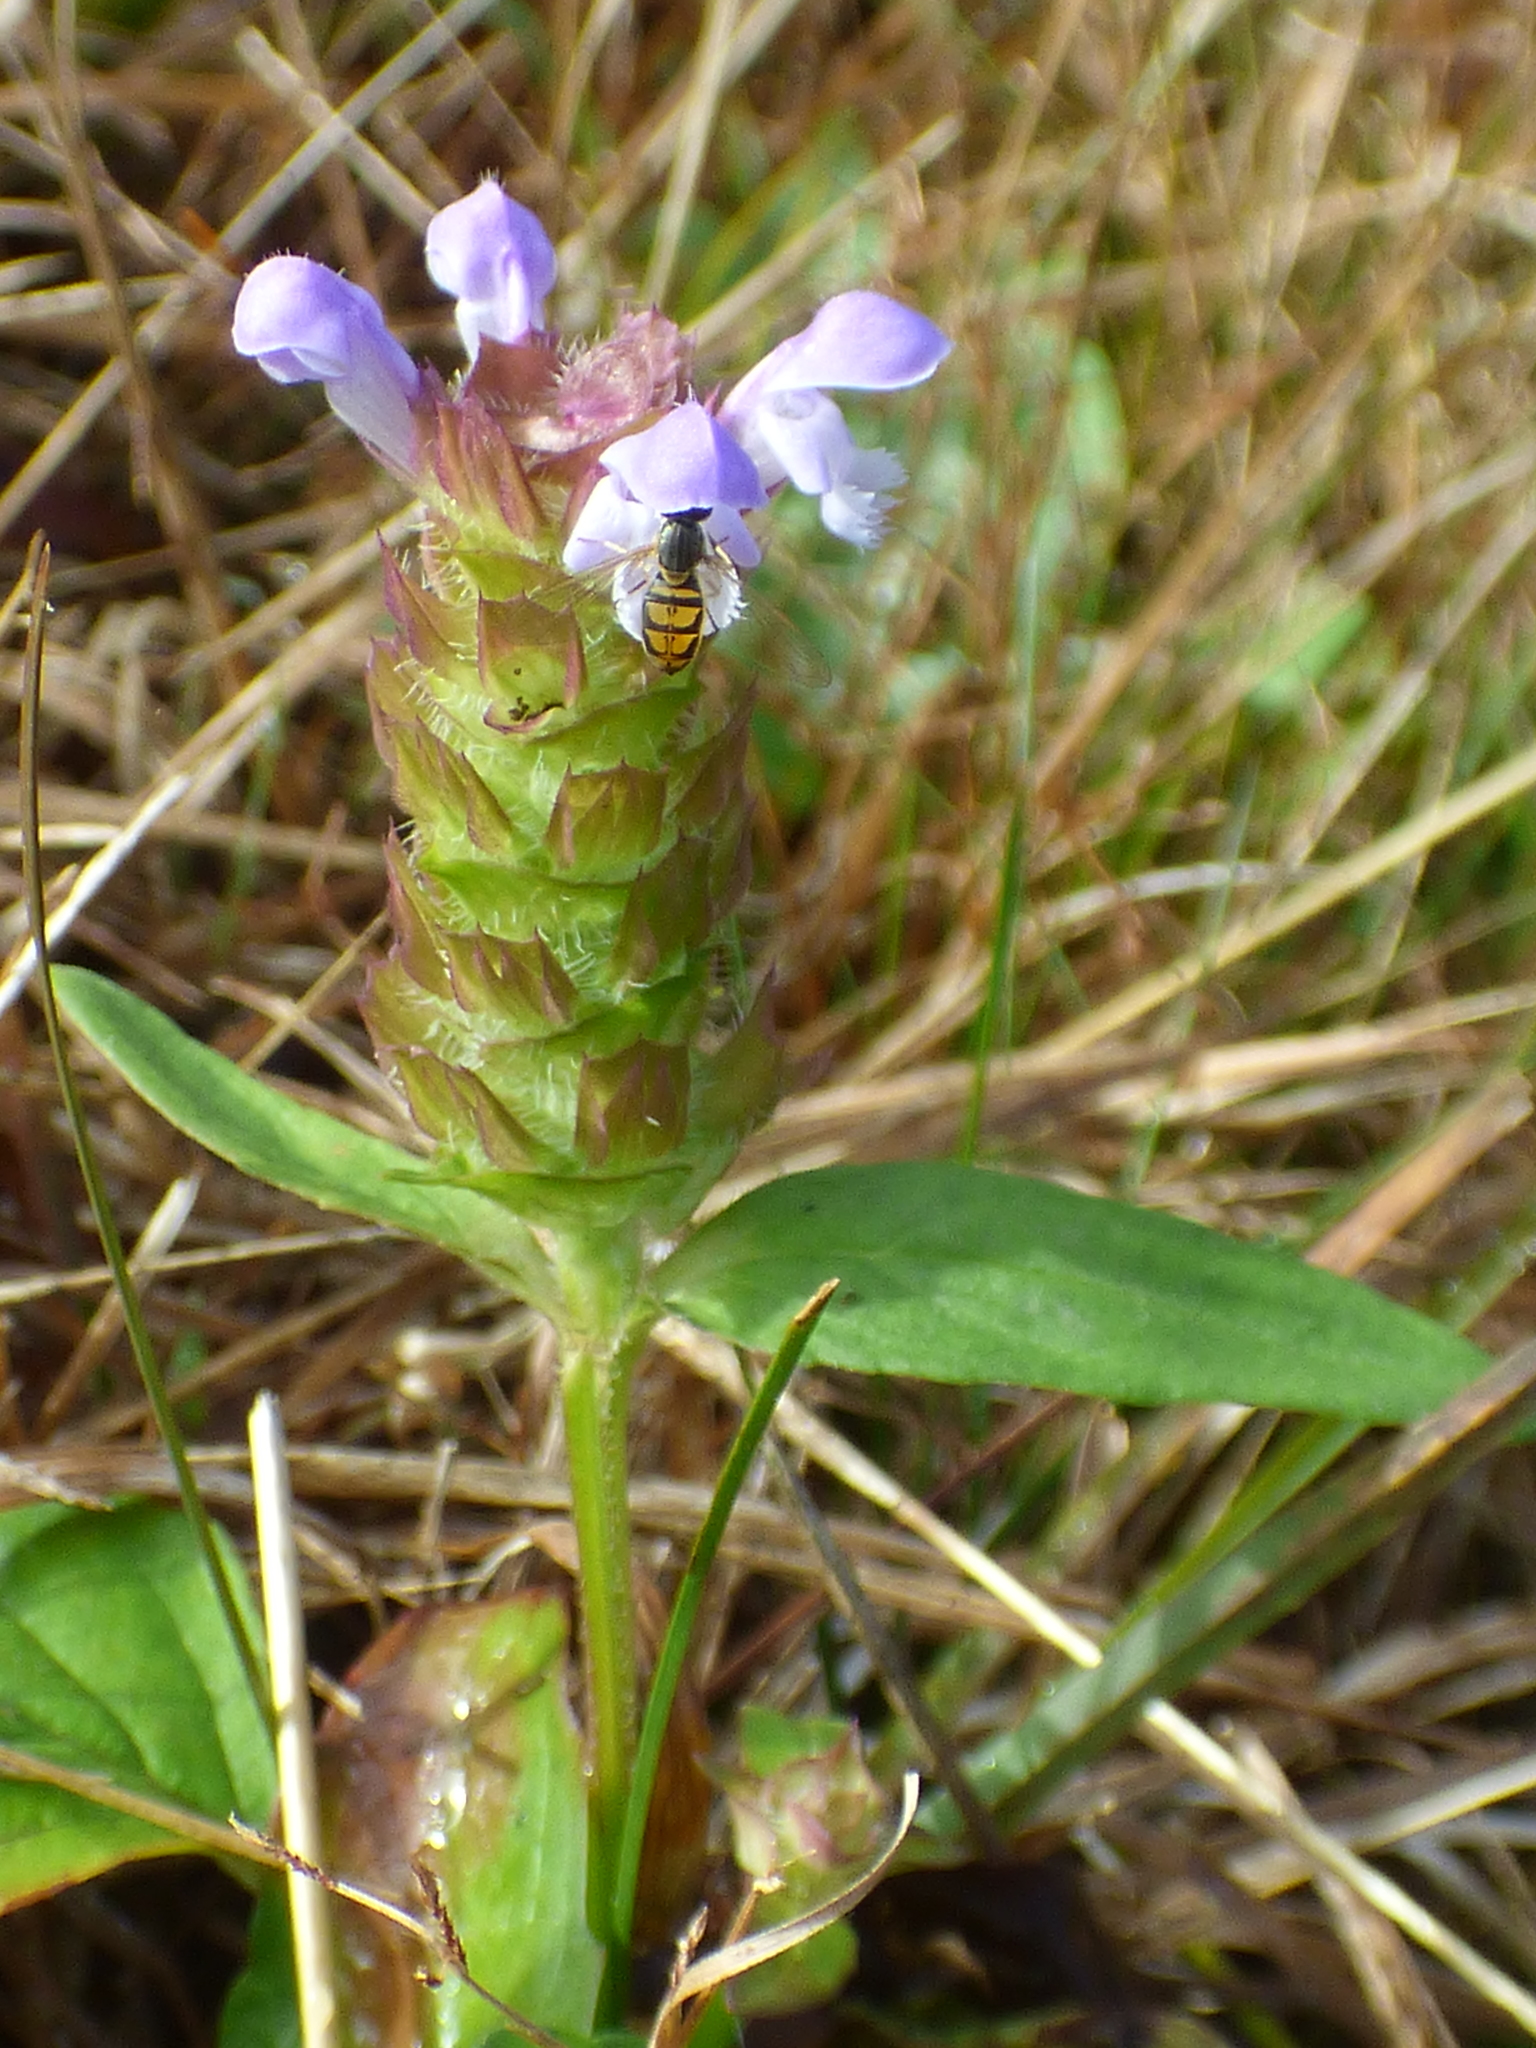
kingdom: Plantae
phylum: Tracheophyta
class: Magnoliopsida
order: Lamiales
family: Lamiaceae
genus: Prunella
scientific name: Prunella vulgaris
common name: Heal-all
